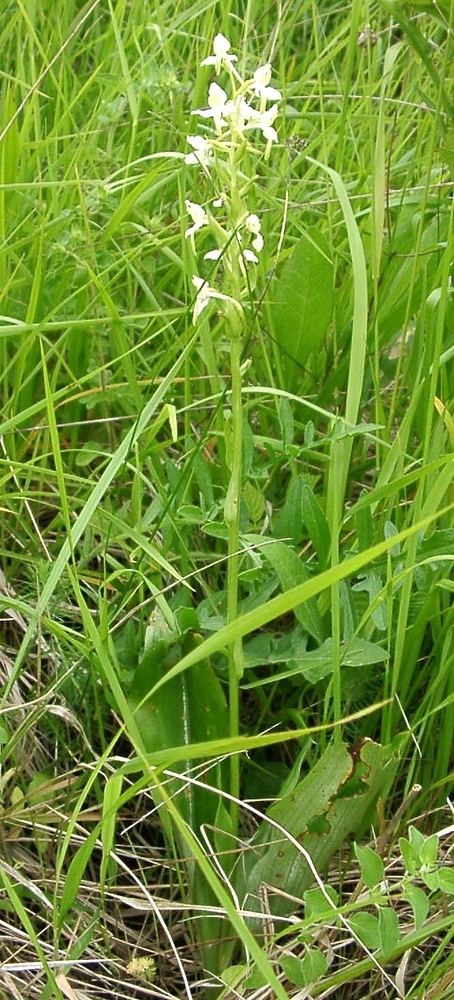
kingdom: Plantae
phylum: Tracheophyta
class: Liliopsida
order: Asparagales
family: Orchidaceae
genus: Platanthera
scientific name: Platanthera muelleri
